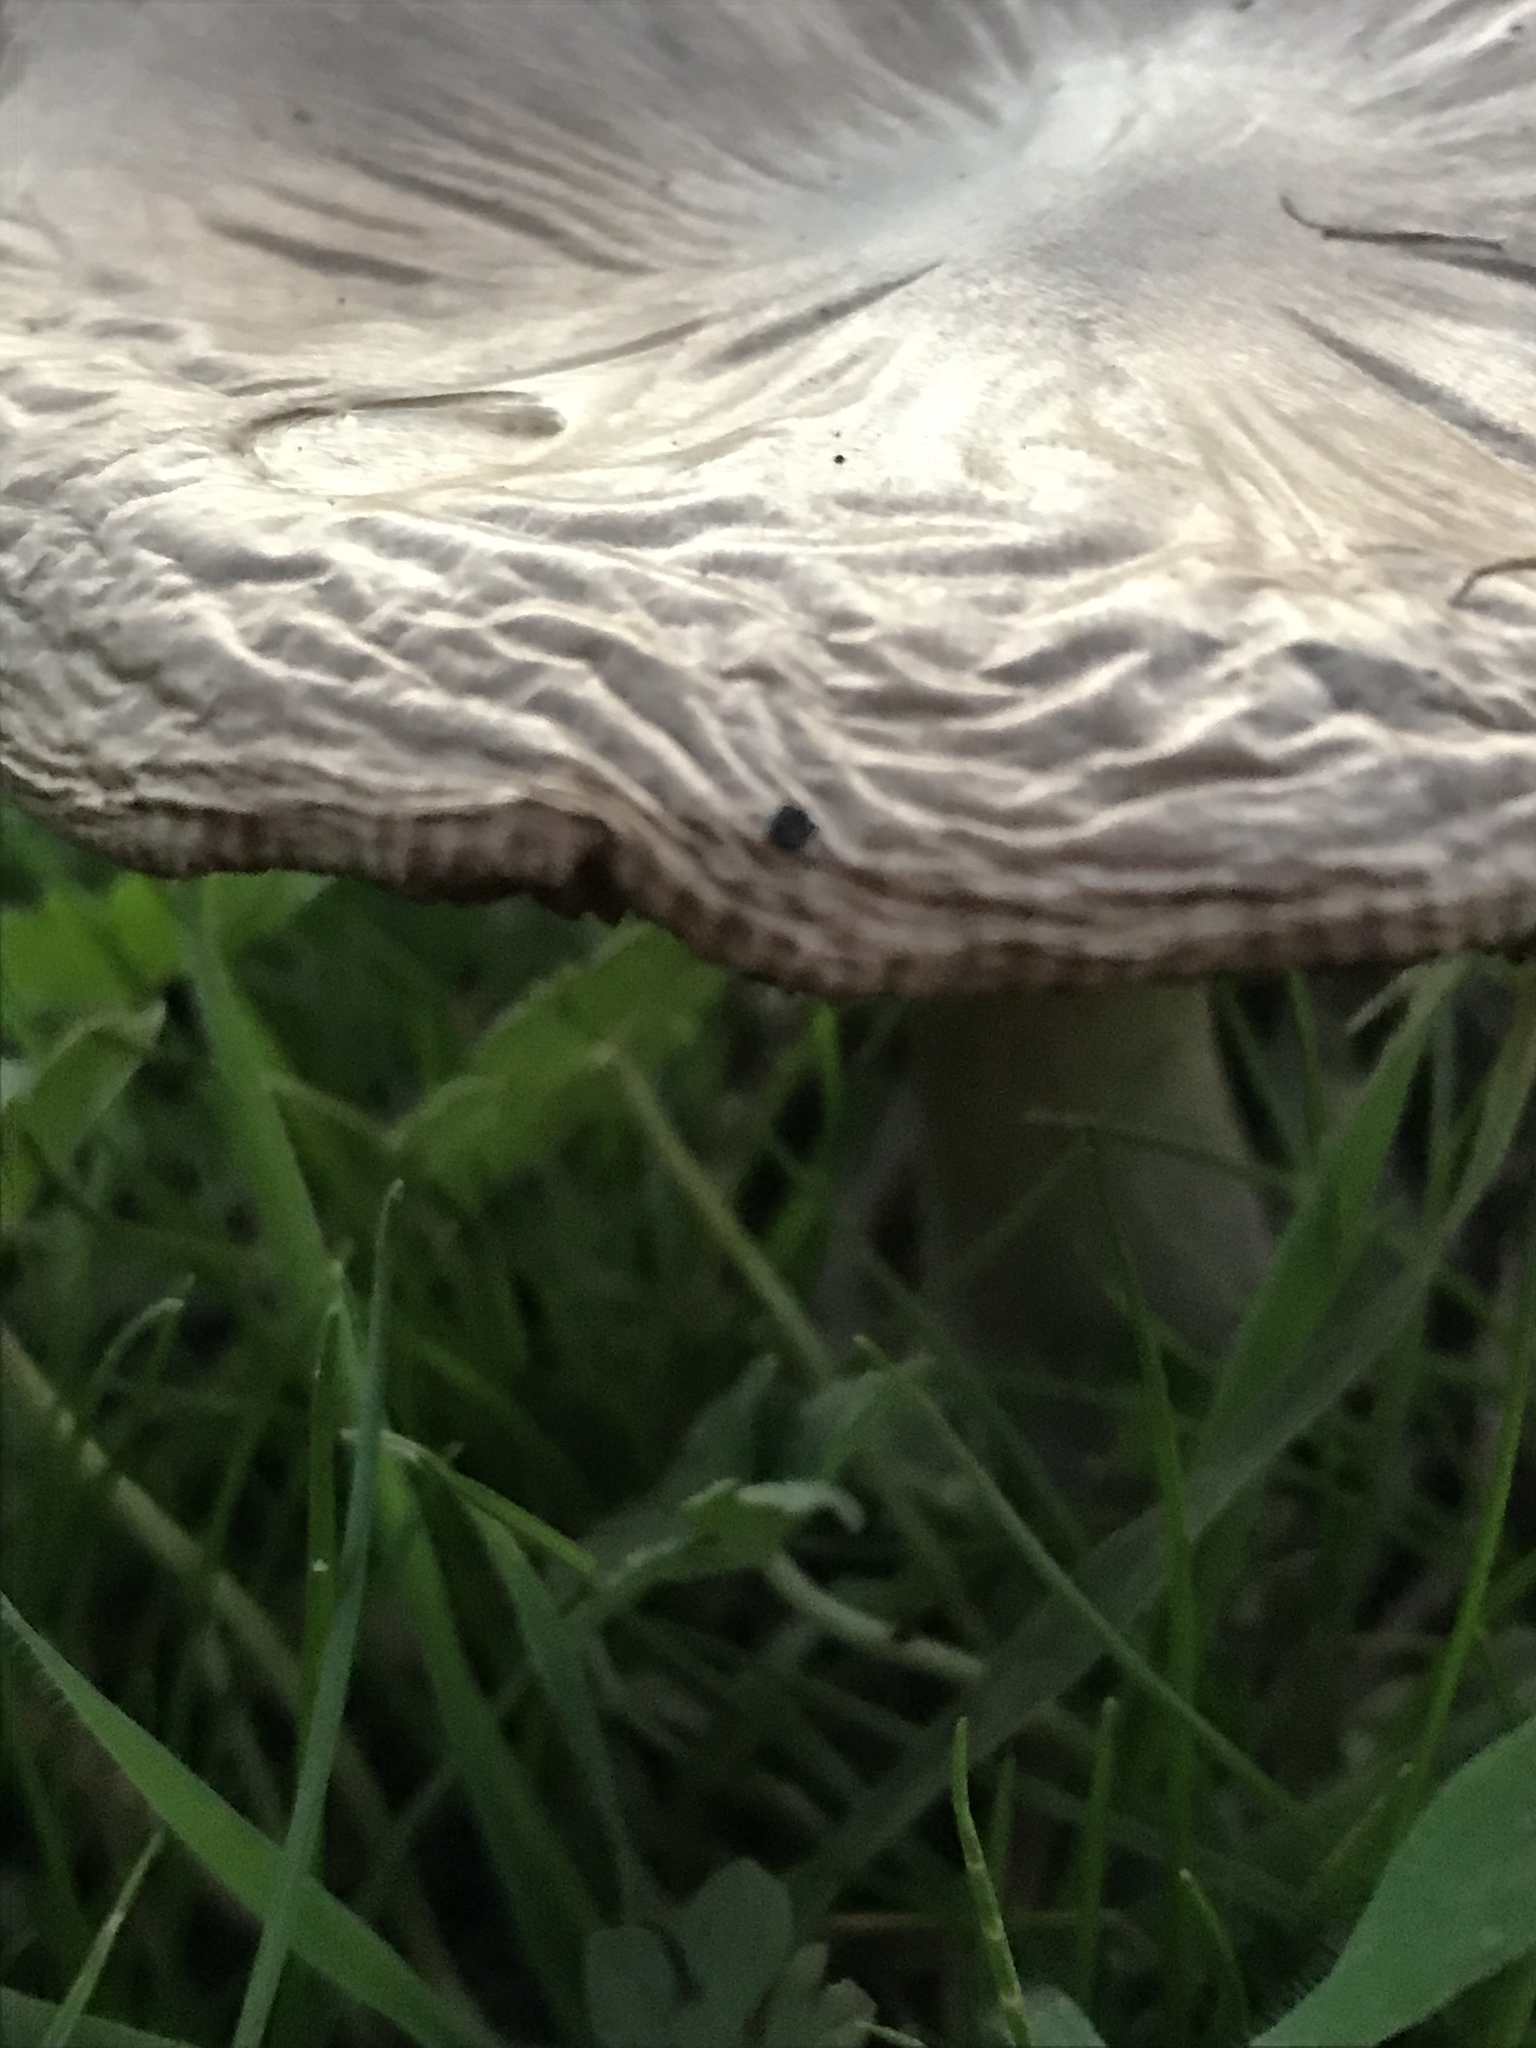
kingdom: Fungi
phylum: Basidiomycota
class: Agaricomycetes
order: Agaricales
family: Pluteaceae
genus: Volvopluteus
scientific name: Volvopluteus gloiocephalus
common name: Stubble rosegill
